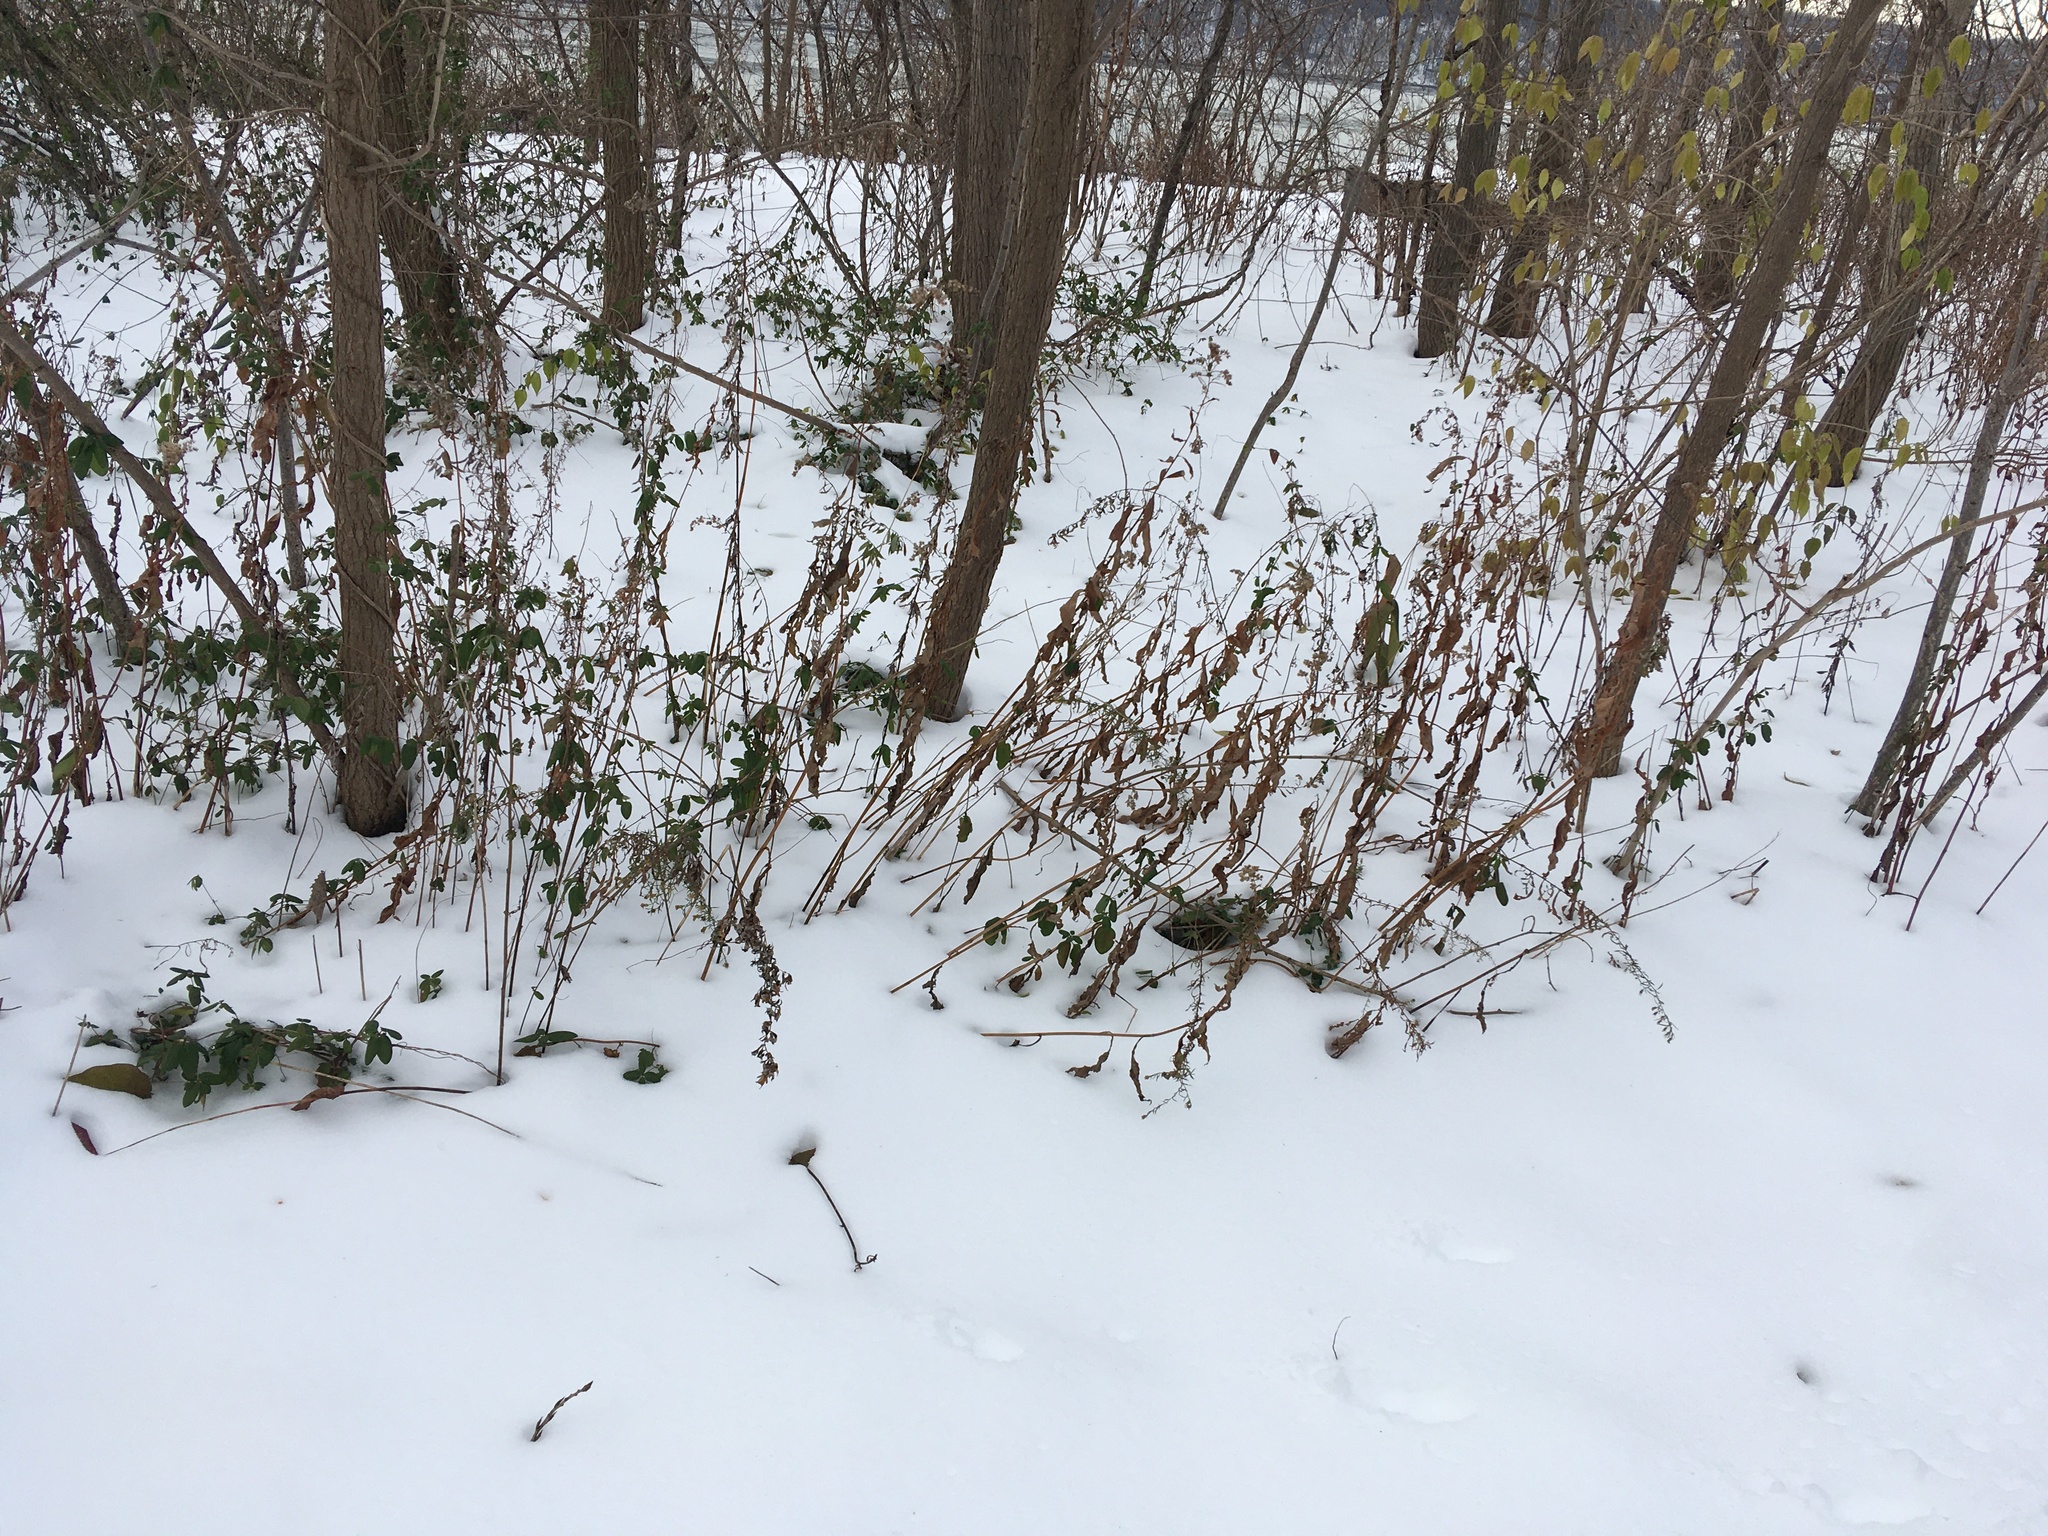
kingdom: Plantae
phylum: Tracheophyta
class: Magnoliopsida
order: Asterales
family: Asteraceae
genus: Artemisia
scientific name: Artemisia vulgaris
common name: Mugwort
